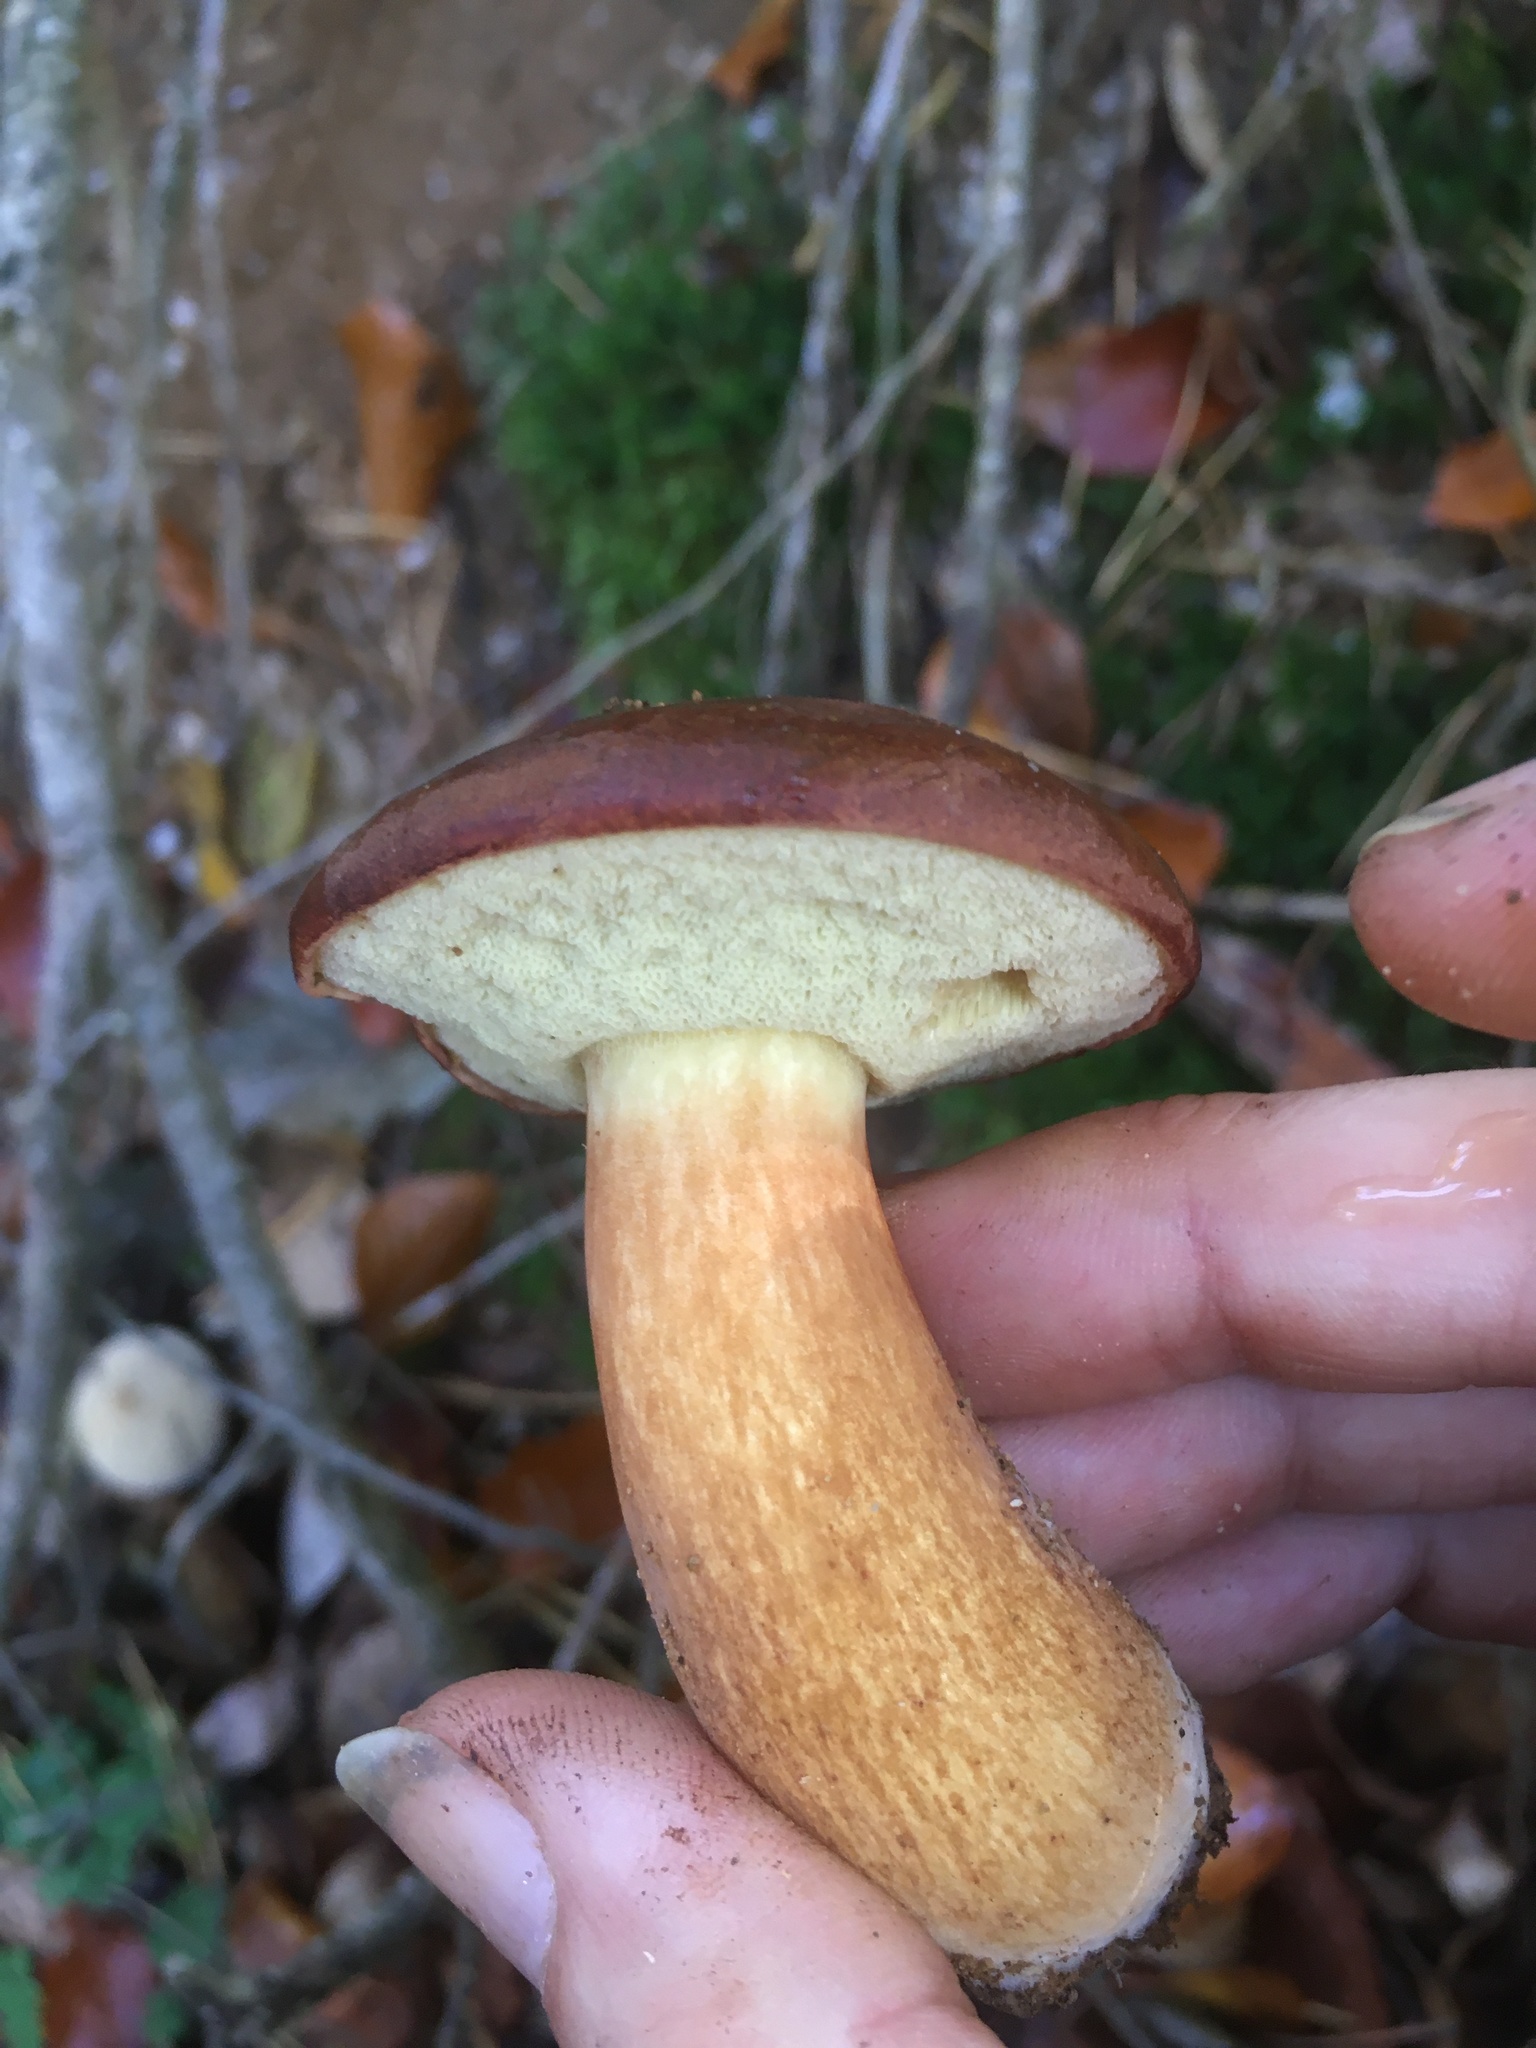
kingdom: Fungi
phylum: Basidiomycota
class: Agaricomycetes
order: Boletales
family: Boletaceae
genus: Imleria
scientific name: Imleria badia
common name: Bay bolete
